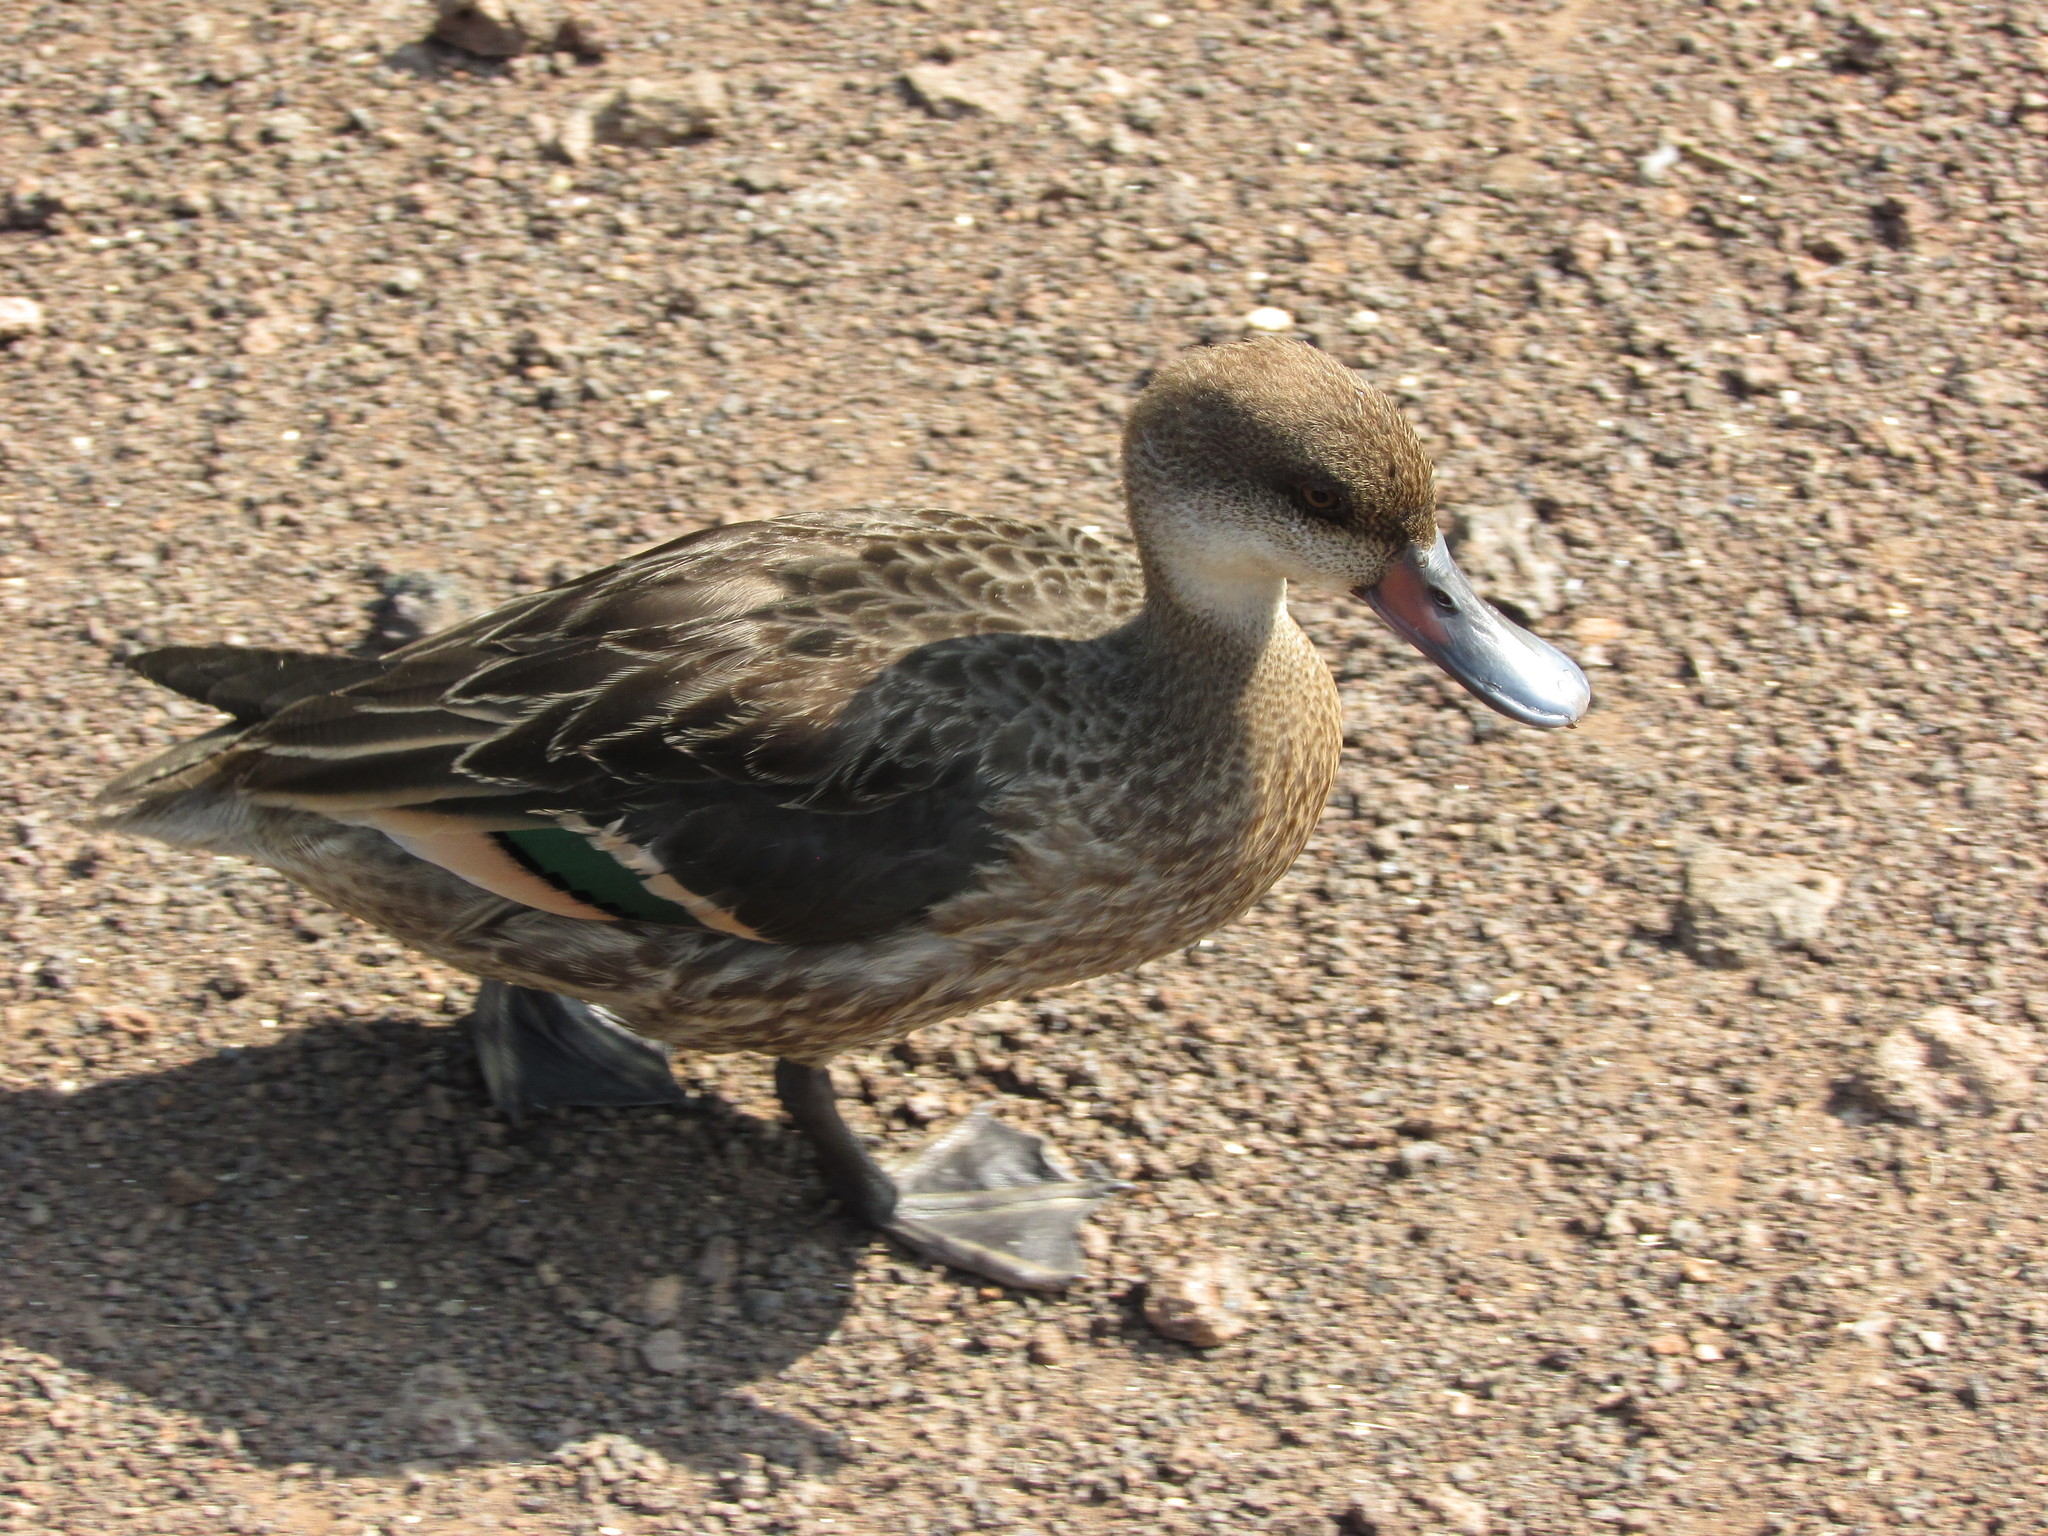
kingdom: Animalia
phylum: Chordata
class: Aves
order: Anseriformes
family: Anatidae
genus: Anas
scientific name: Anas bahamensis
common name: White-cheeked pintail
